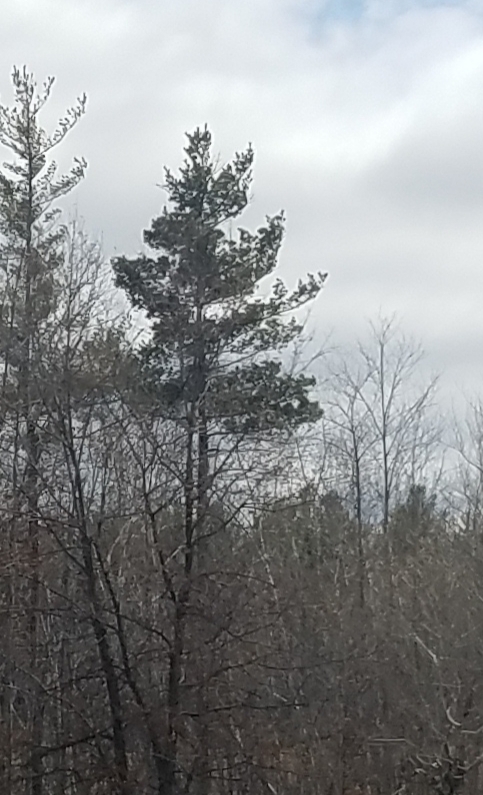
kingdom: Plantae
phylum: Tracheophyta
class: Pinopsida
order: Pinales
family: Pinaceae
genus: Pinus
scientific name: Pinus strobus
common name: Weymouth pine
